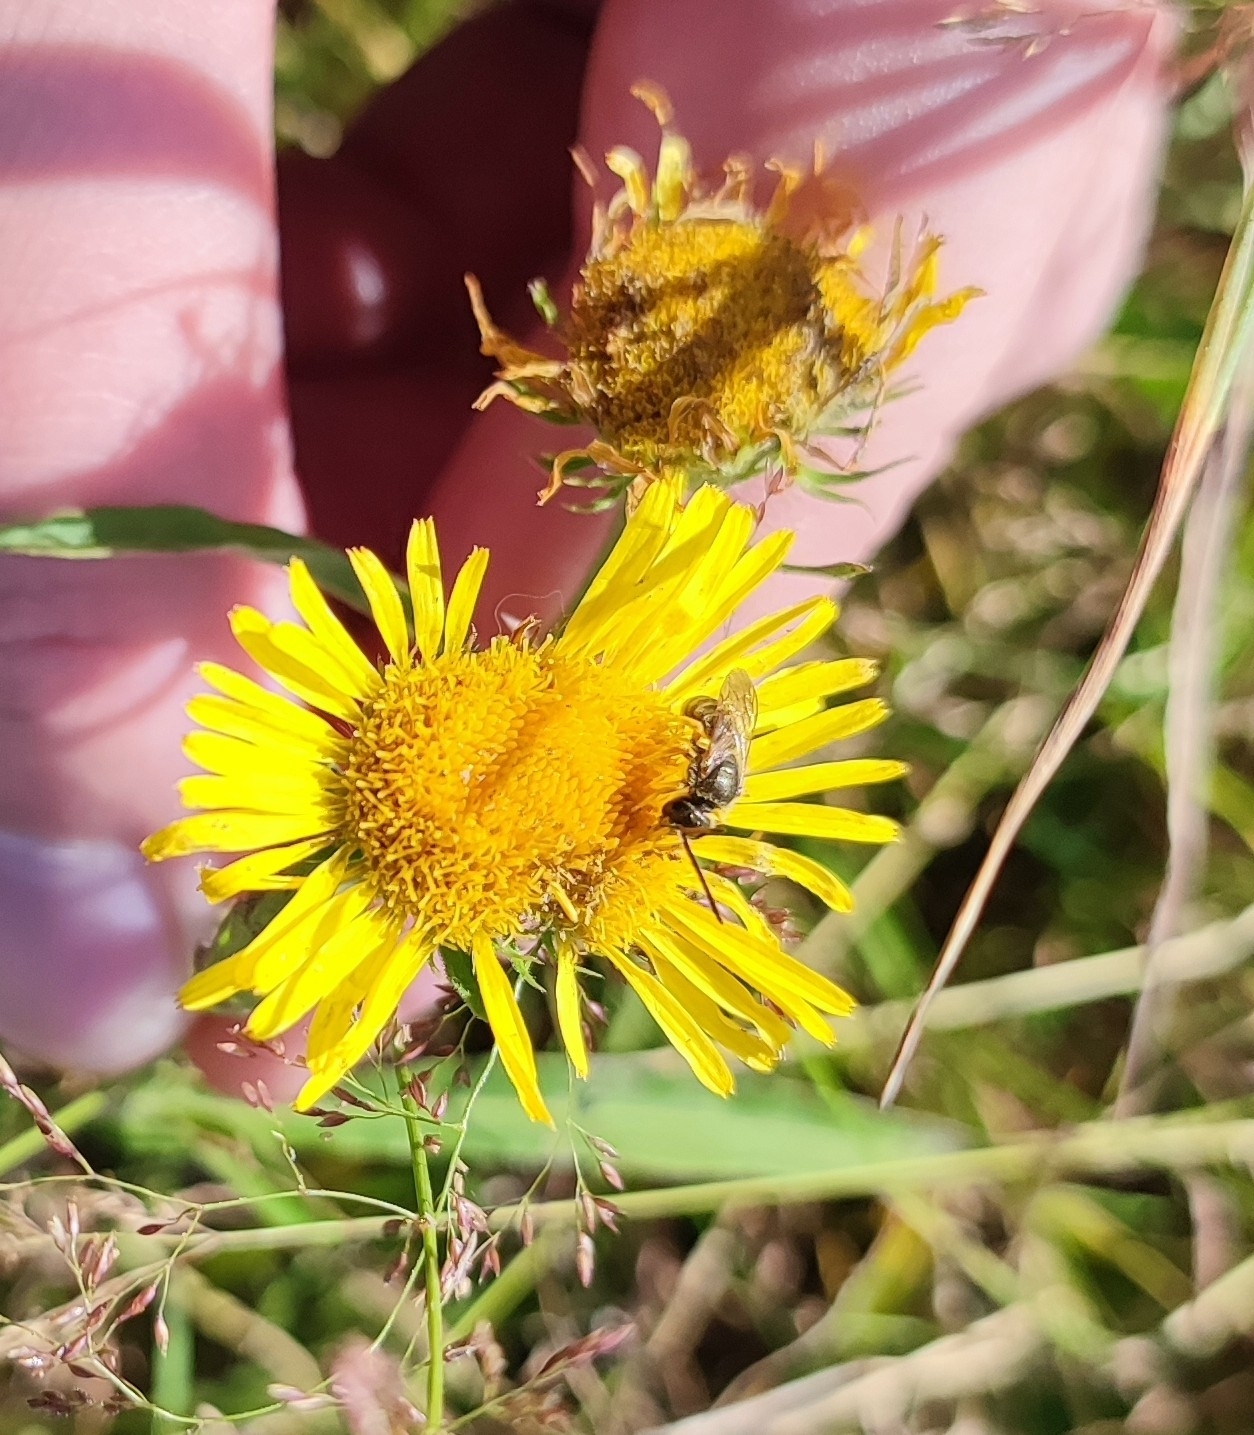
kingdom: Plantae
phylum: Tracheophyta
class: Magnoliopsida
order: Asterales
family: Asteraceae
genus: Pentanema
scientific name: Pentanema britannicum
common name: British elecampane
